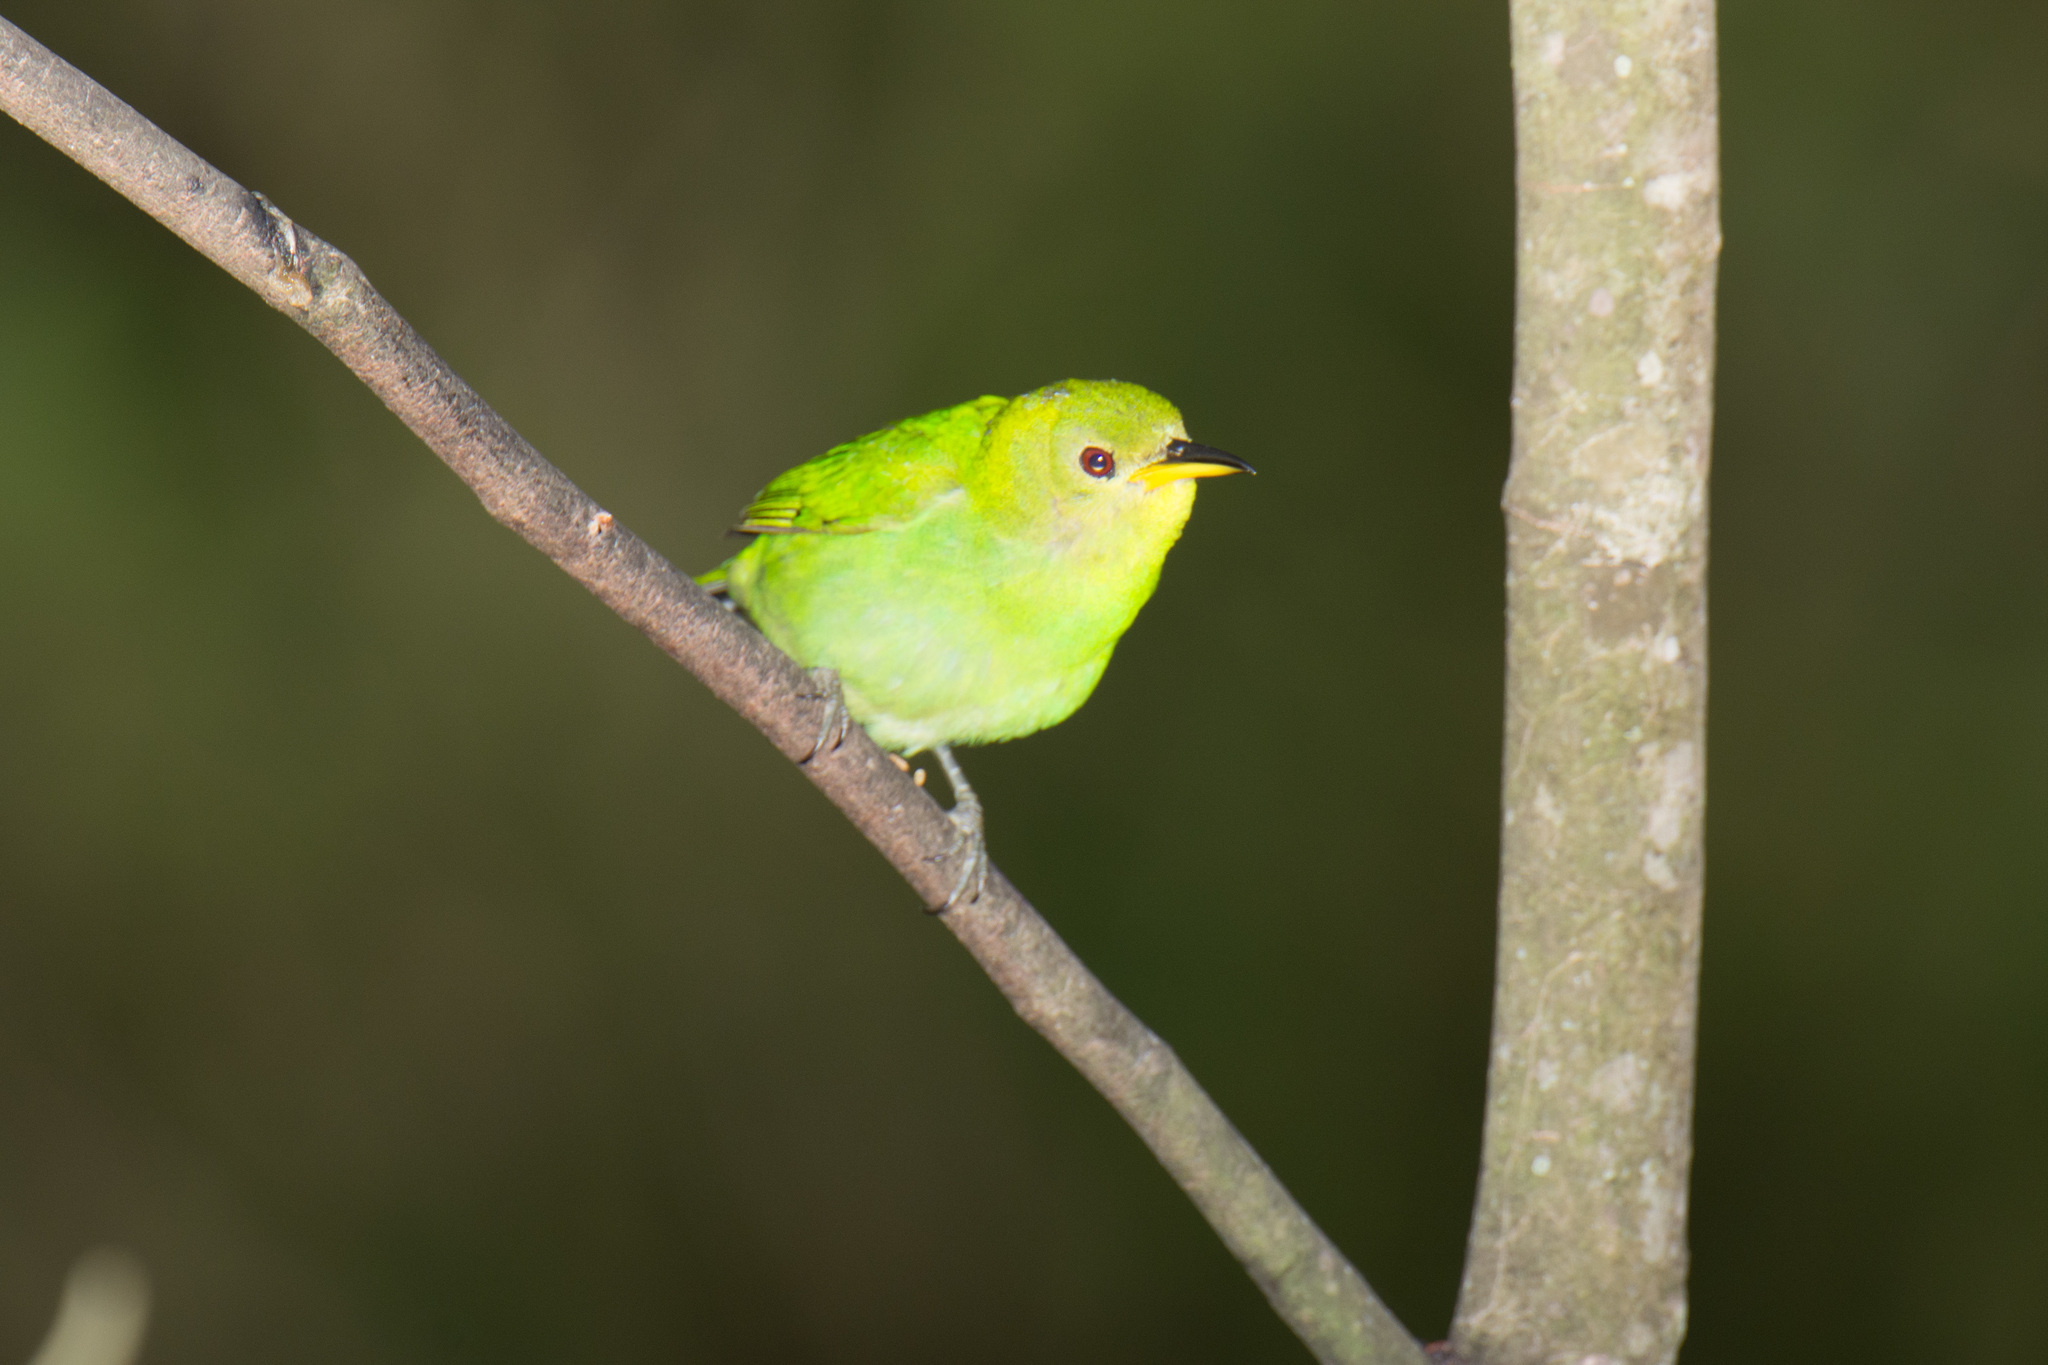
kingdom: Animalia
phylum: Chordata
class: Aves
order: Passeriformes
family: Thraupidae
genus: Chlorophanes
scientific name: Chlorophanes spiza
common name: Green honeycreeper
